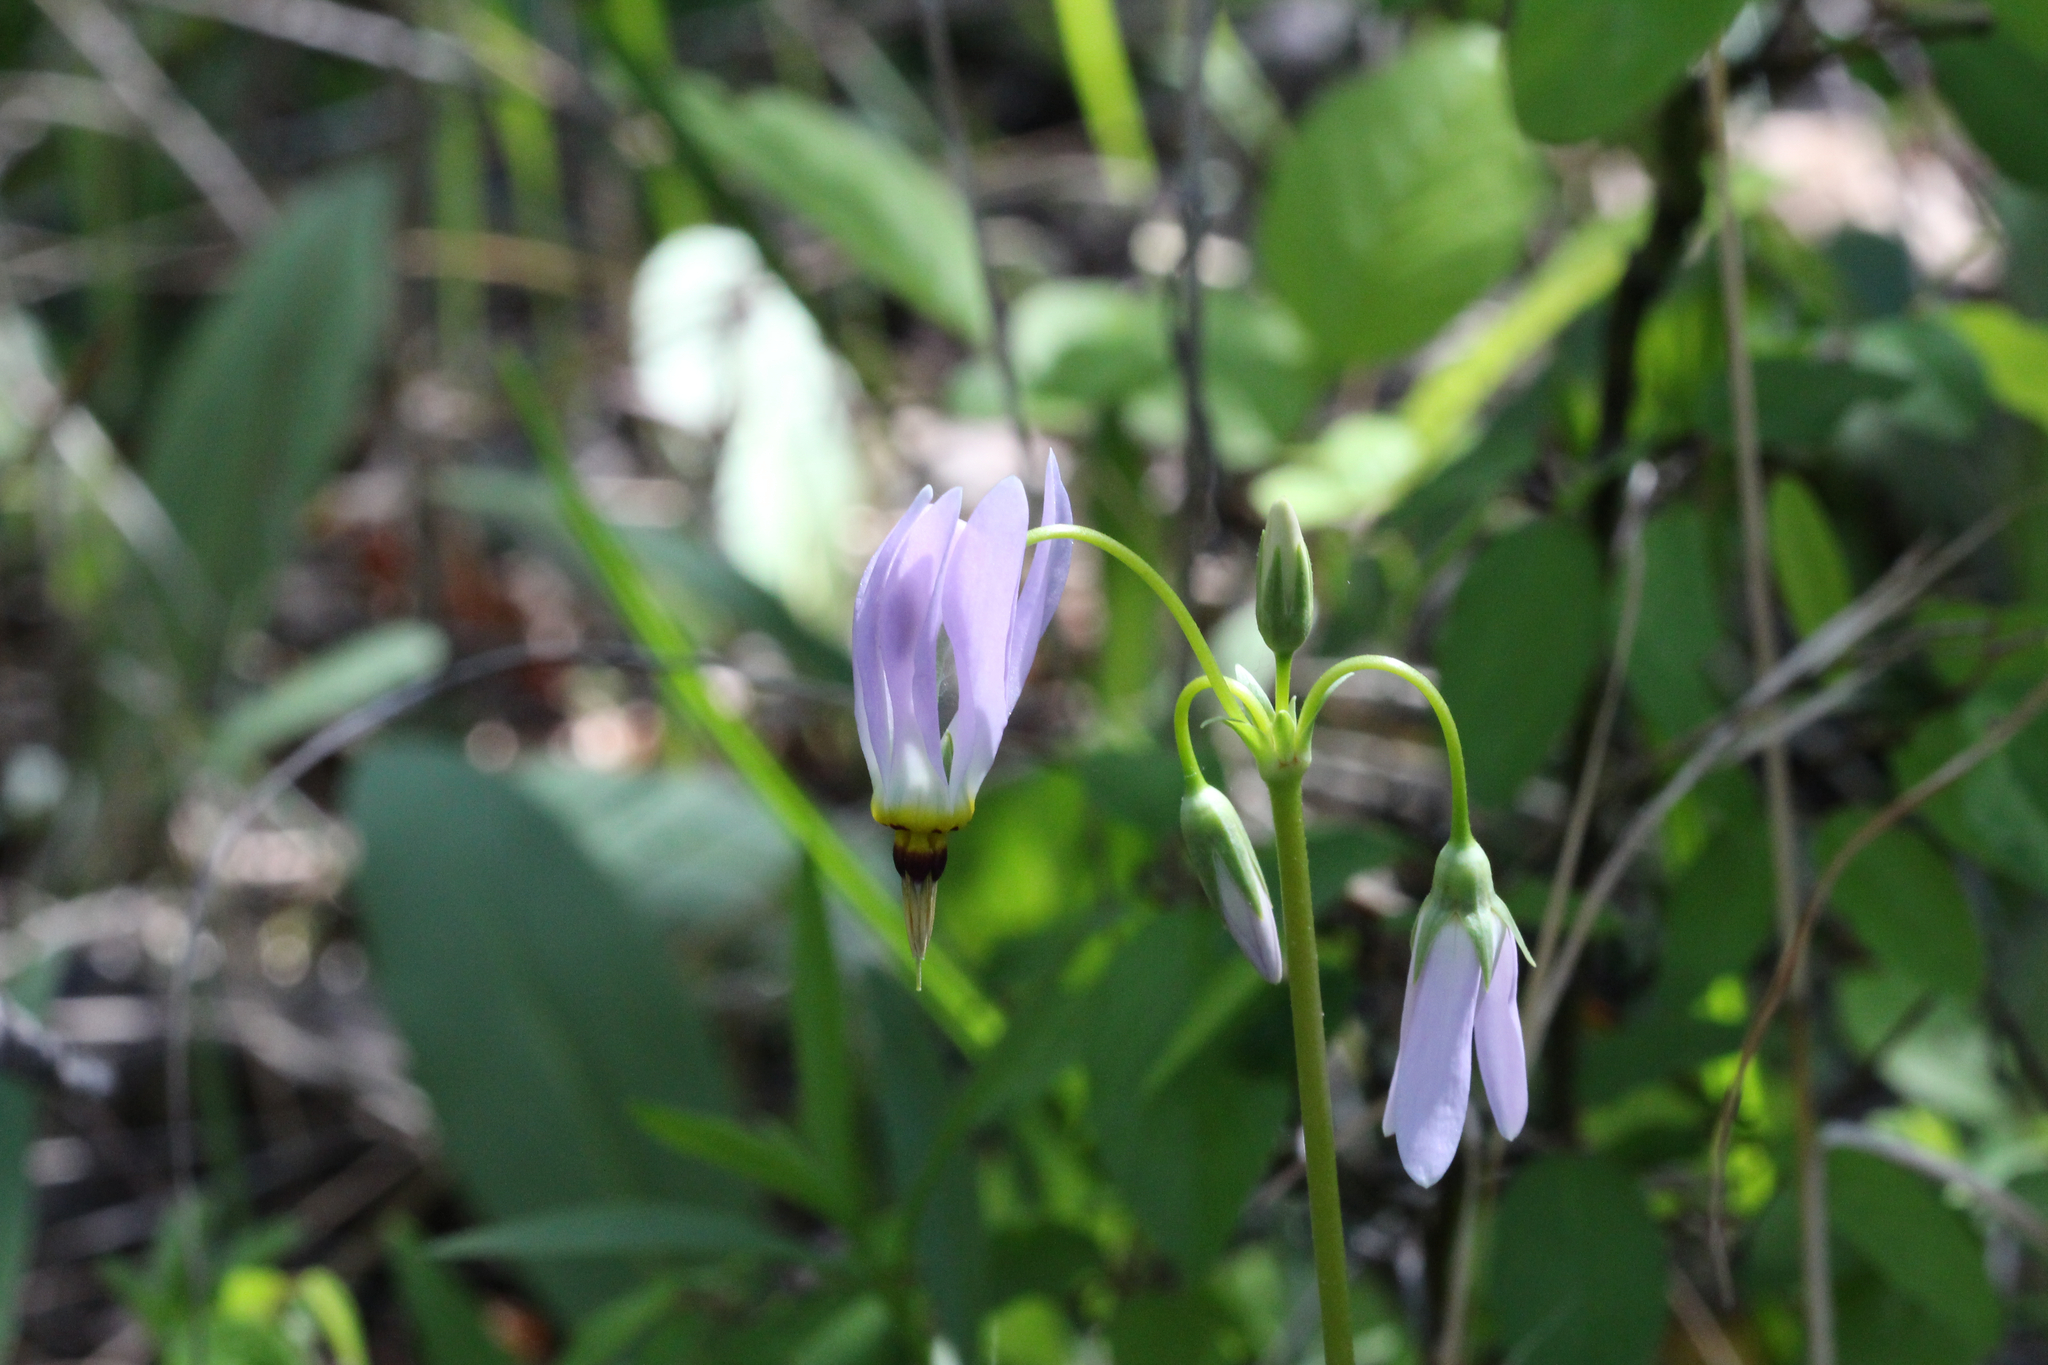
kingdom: Plantae
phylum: Tracheophyta
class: Magnoliopsida
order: Ericales
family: Primulaceae
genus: Dodecatheon
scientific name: Dodecatheon meadia
